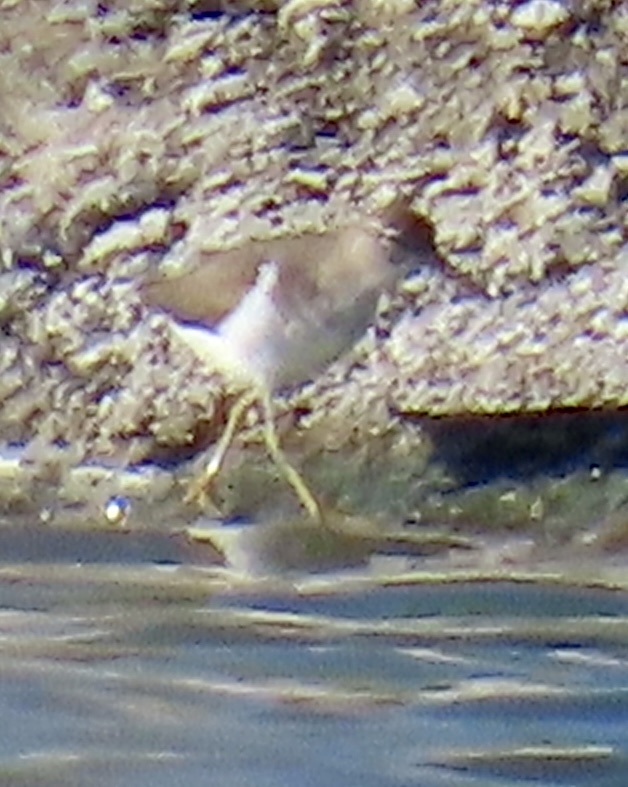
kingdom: Animalia
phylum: Chordata
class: Aves
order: Charadriiformes
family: Scolopacidae
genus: Actitis
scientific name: Actitis macularius
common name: Spotted sandpiper
